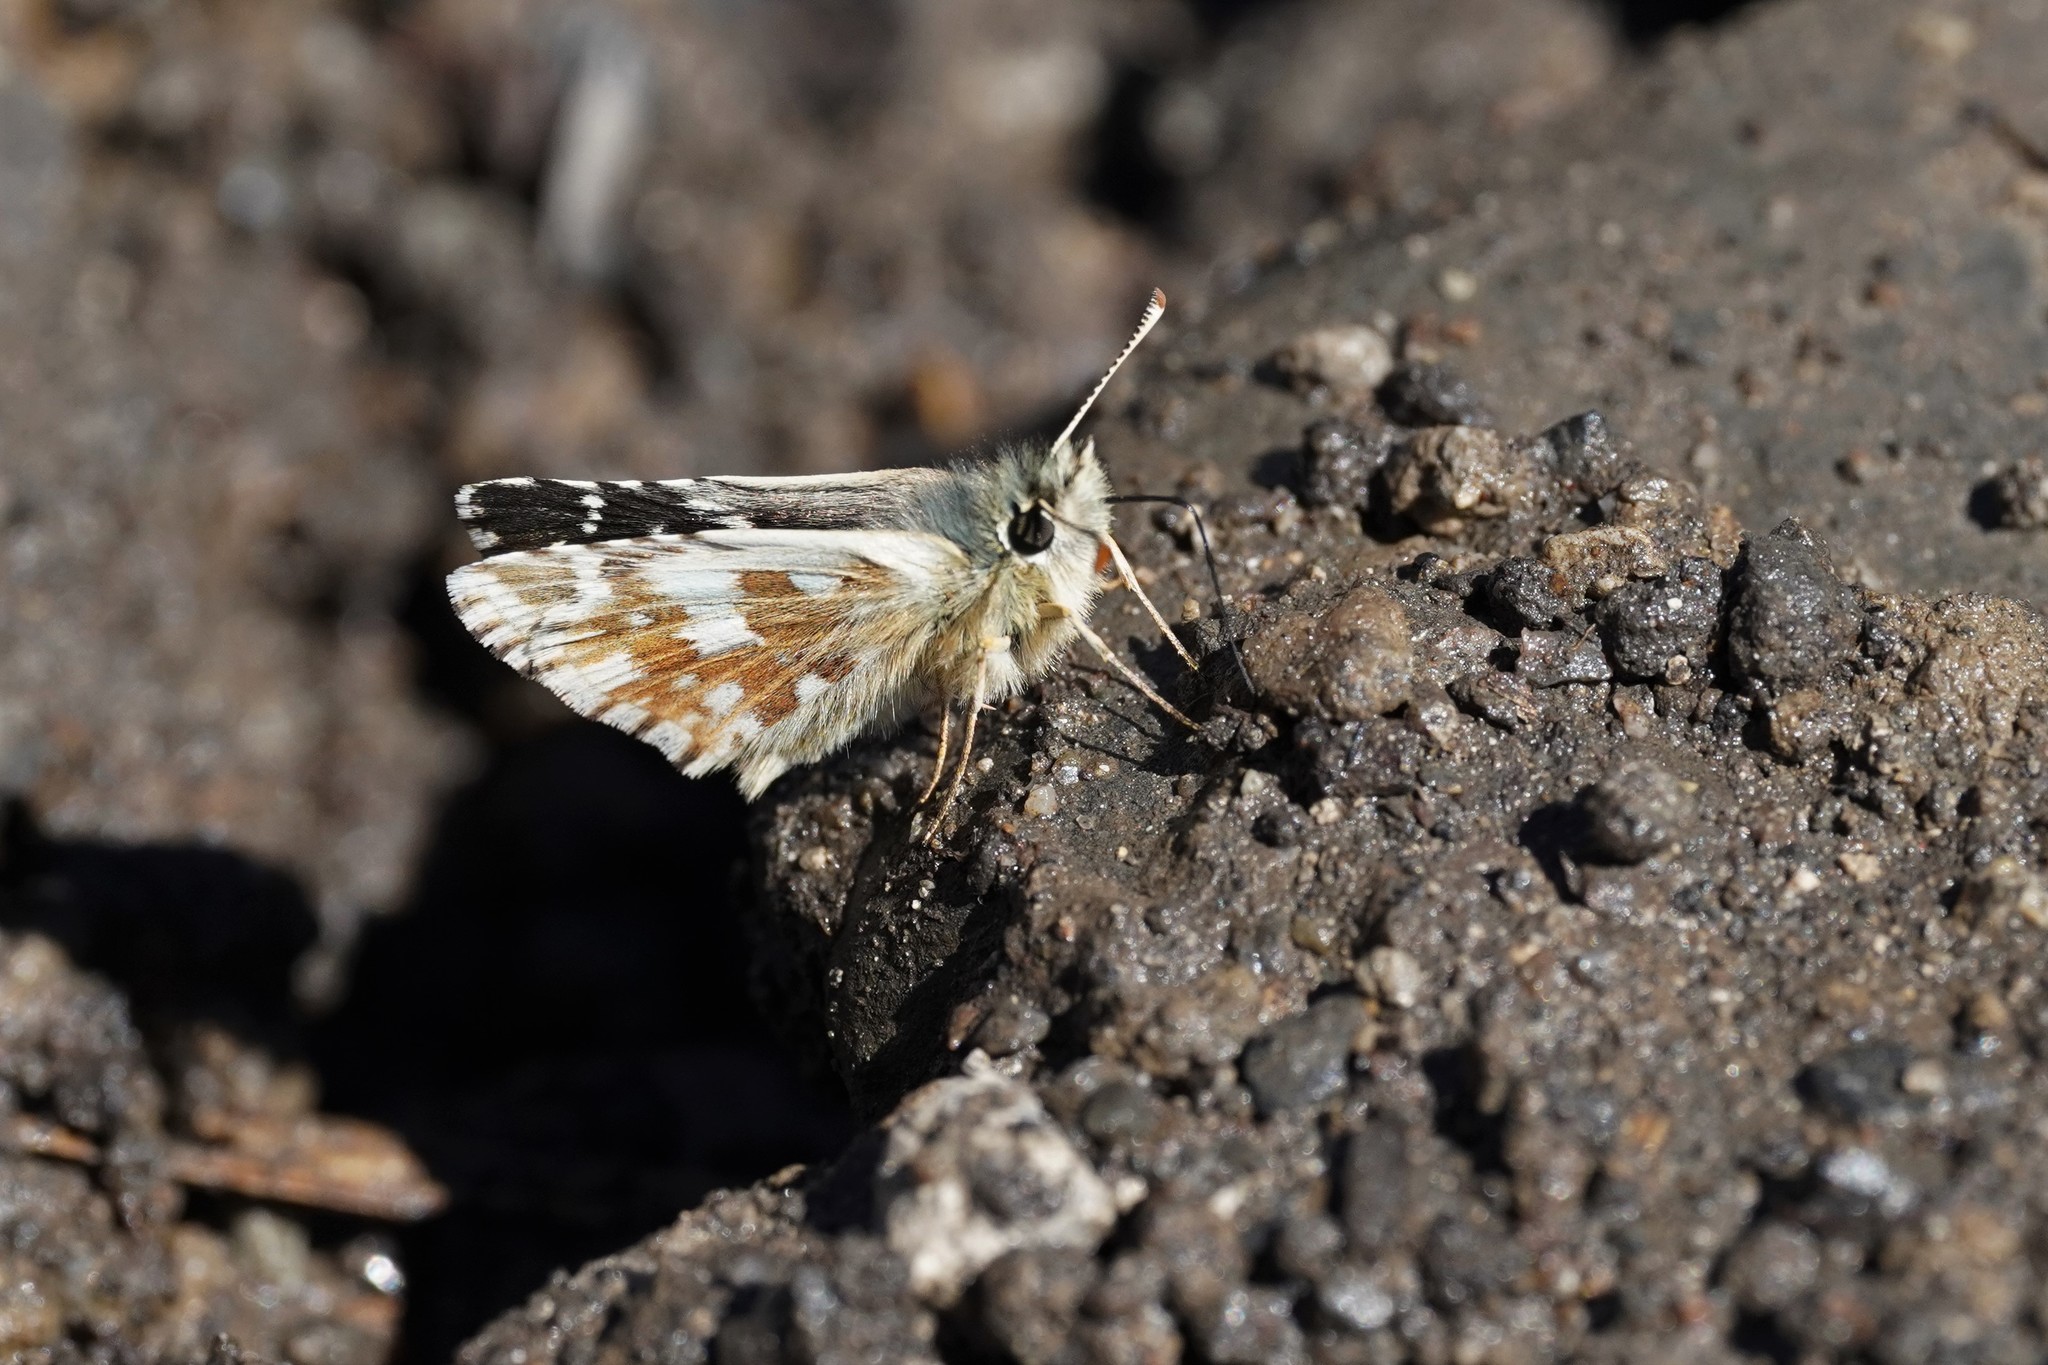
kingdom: Animalia
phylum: Arthropoda
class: Insecta
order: Lepidoptera
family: Hesperiidae
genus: Pyrgus
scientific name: Pyrgus carlinae
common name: Carline skipper
